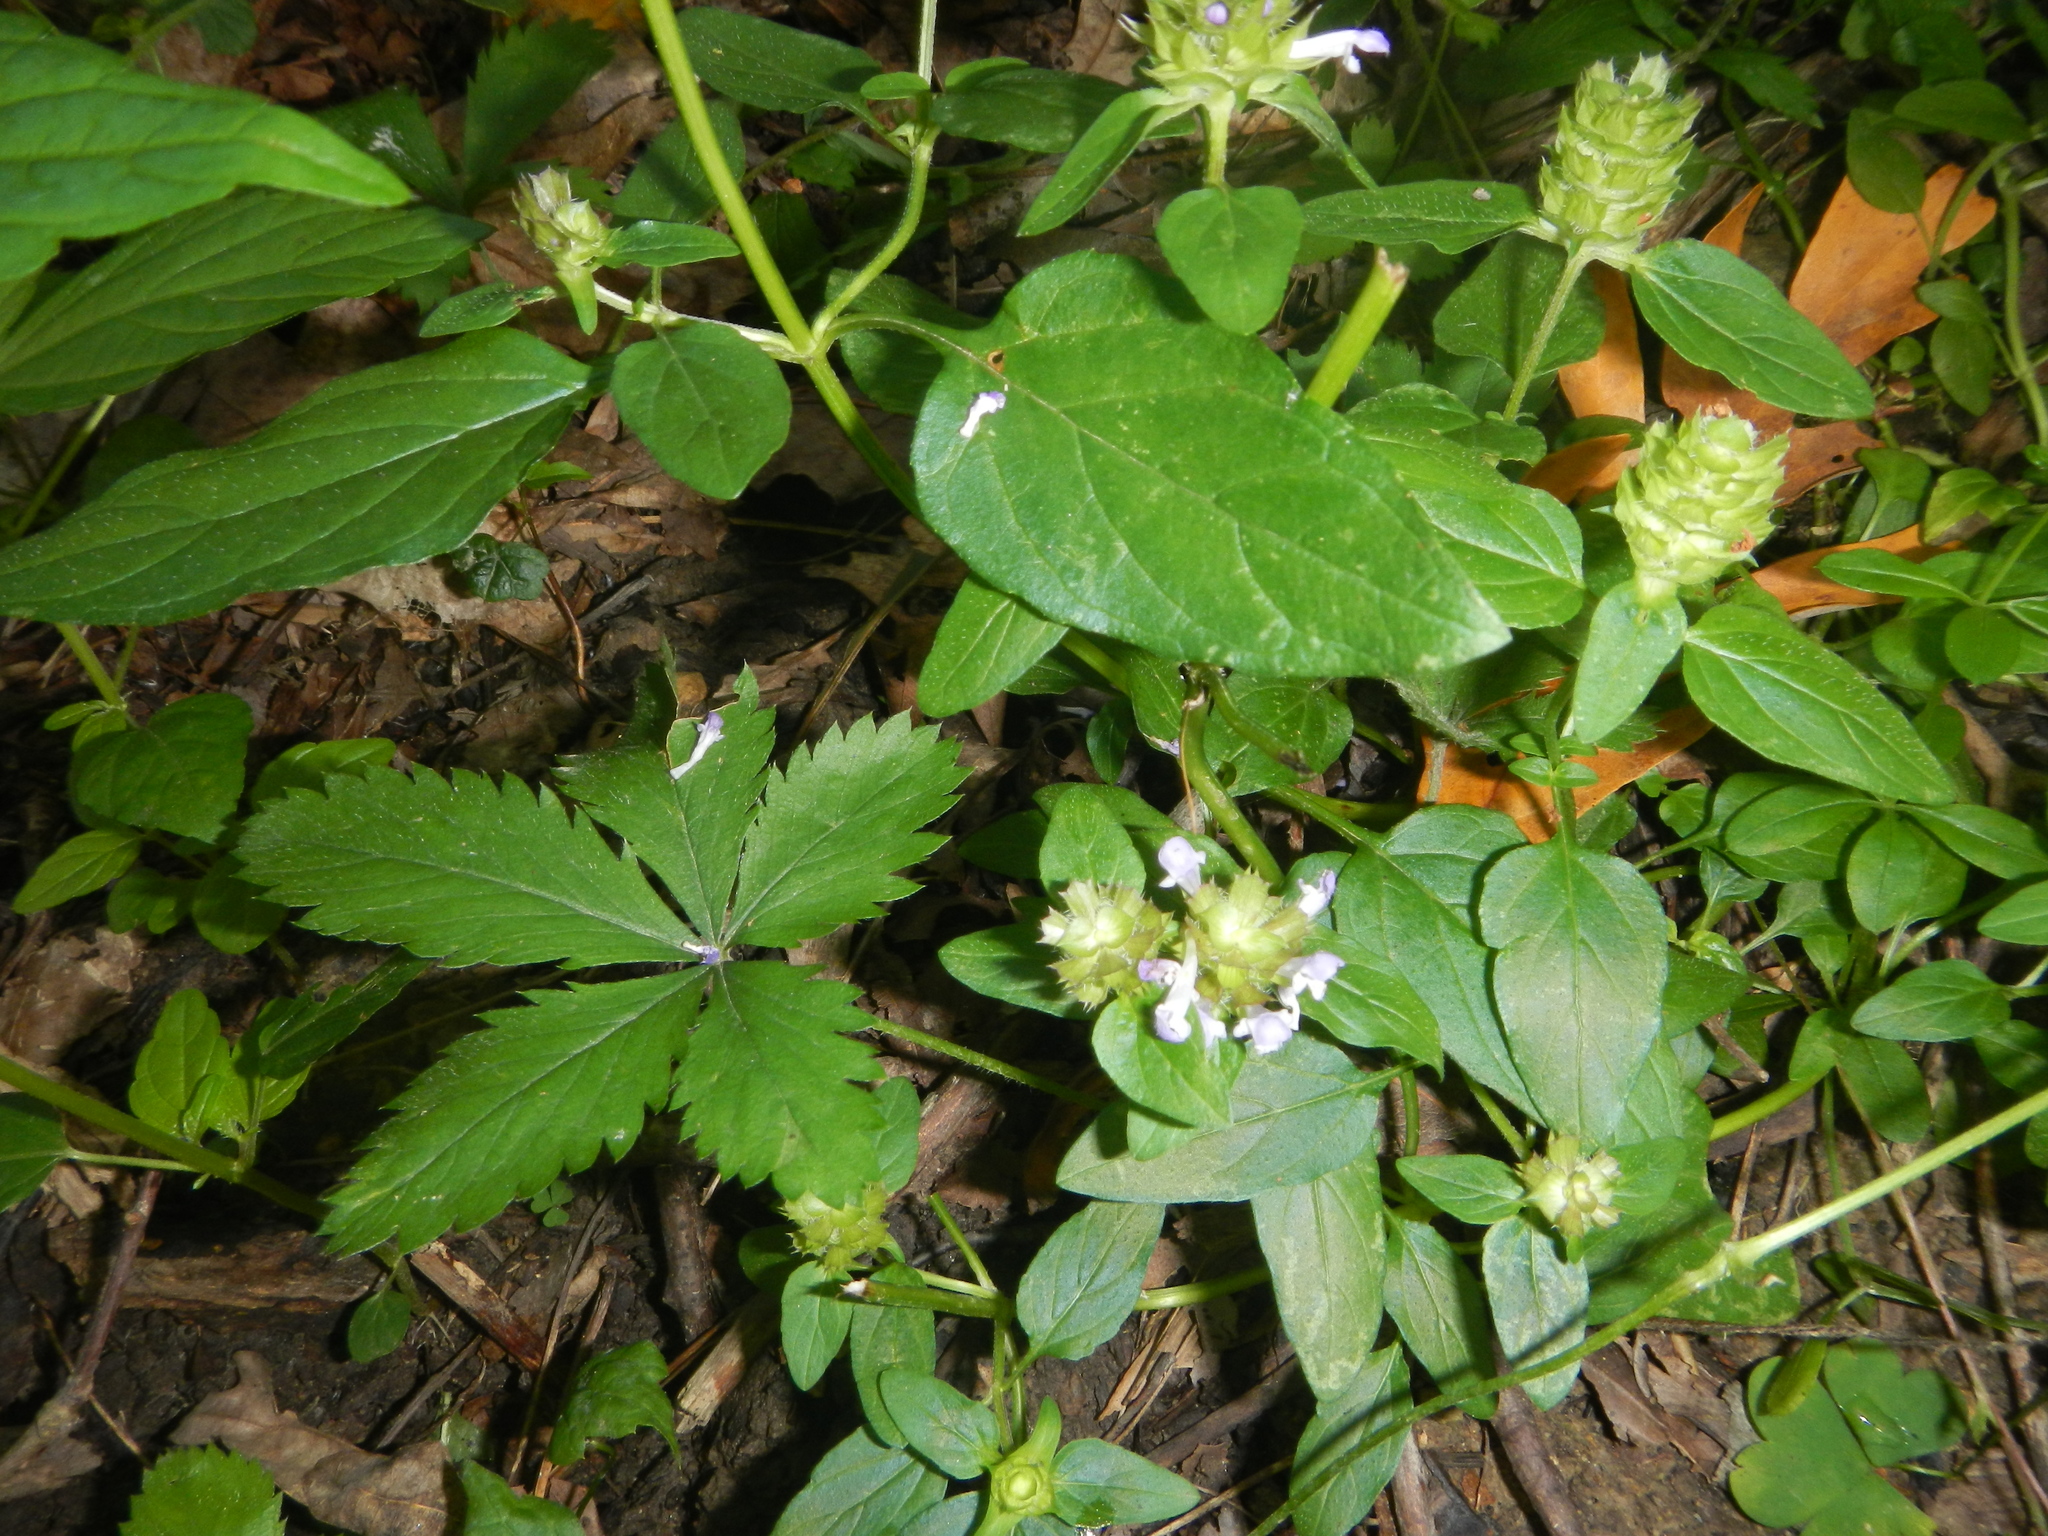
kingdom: Plantae
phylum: Tracheophyta
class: Magnoliopsida
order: Lamiales
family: Lamiaceae
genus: Prunella
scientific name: Prunella vulgaris
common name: Heal-all
